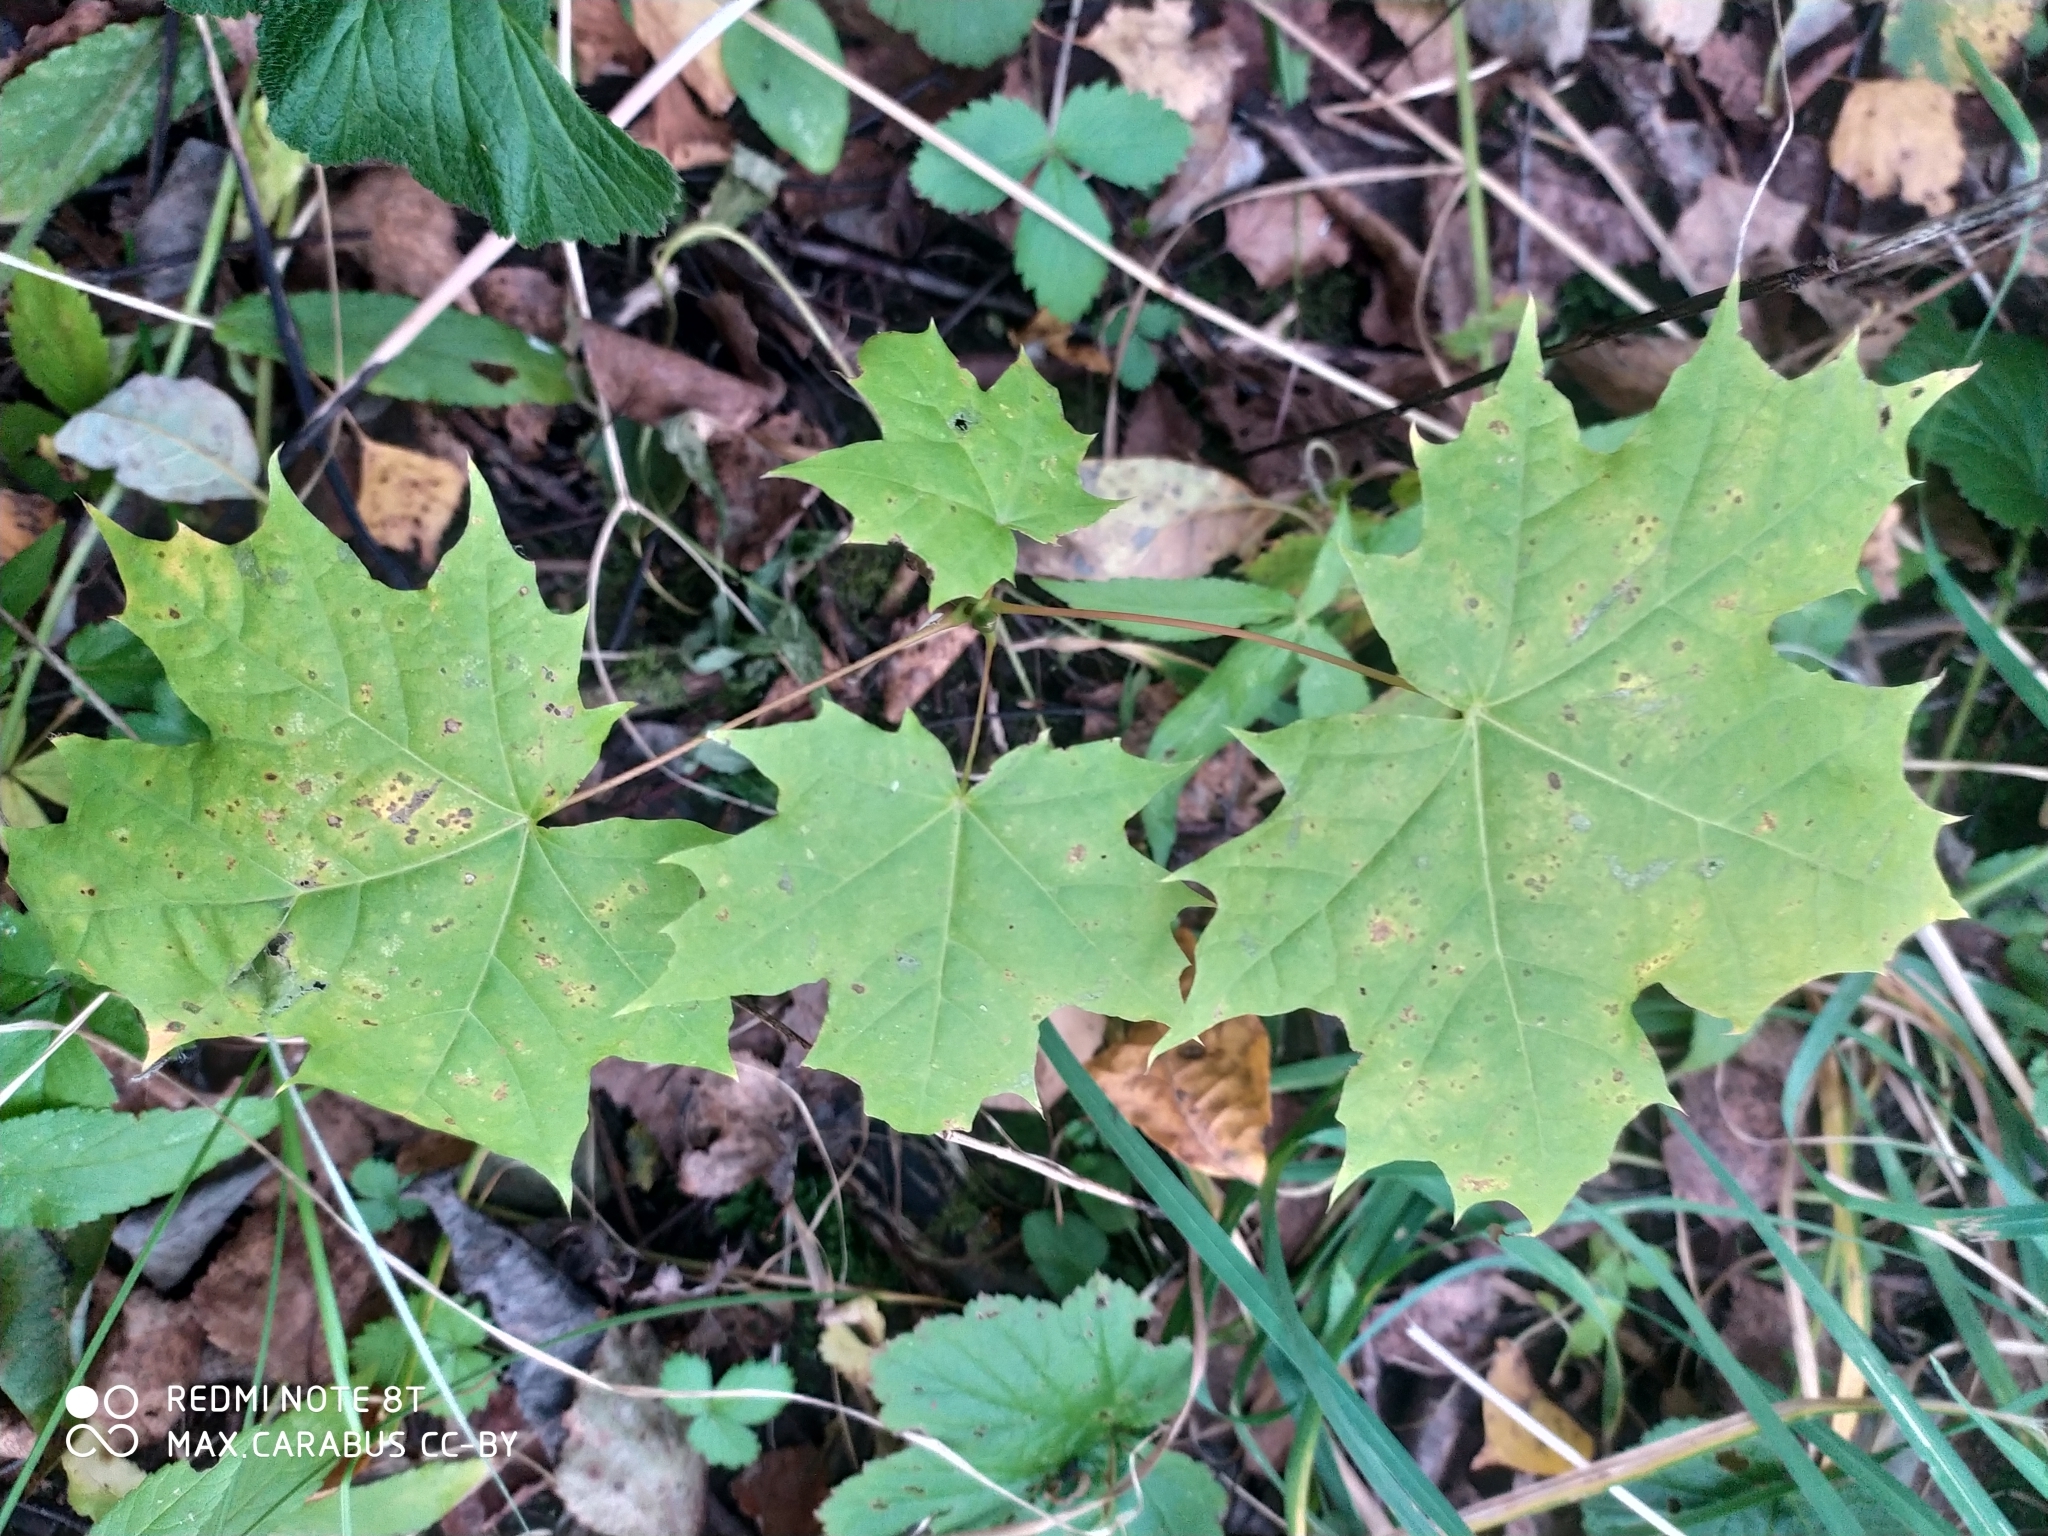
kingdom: Plantae
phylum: Tracheophyta
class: Magnoliopsida
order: Sapindales
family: Sapindaceae
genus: Acer
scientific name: Acer platanoides
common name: Norway maple
